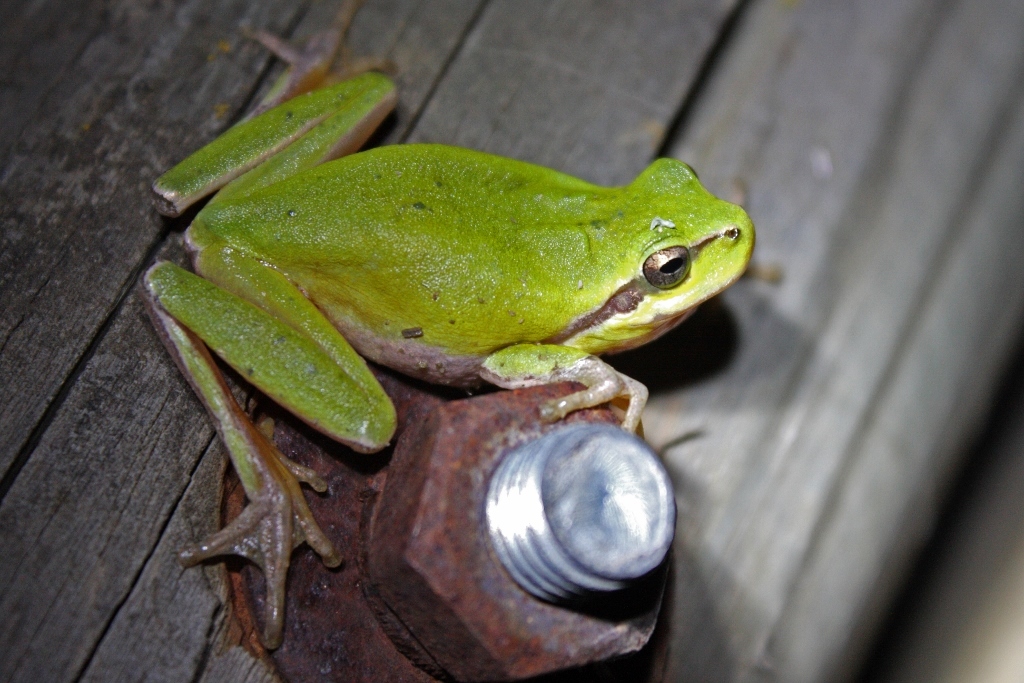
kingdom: Animalia
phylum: Chordata
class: Amphibia
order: Anura
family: Hylidae
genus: Hyla
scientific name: Hyla meridionalis
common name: Stripeless tree frog
